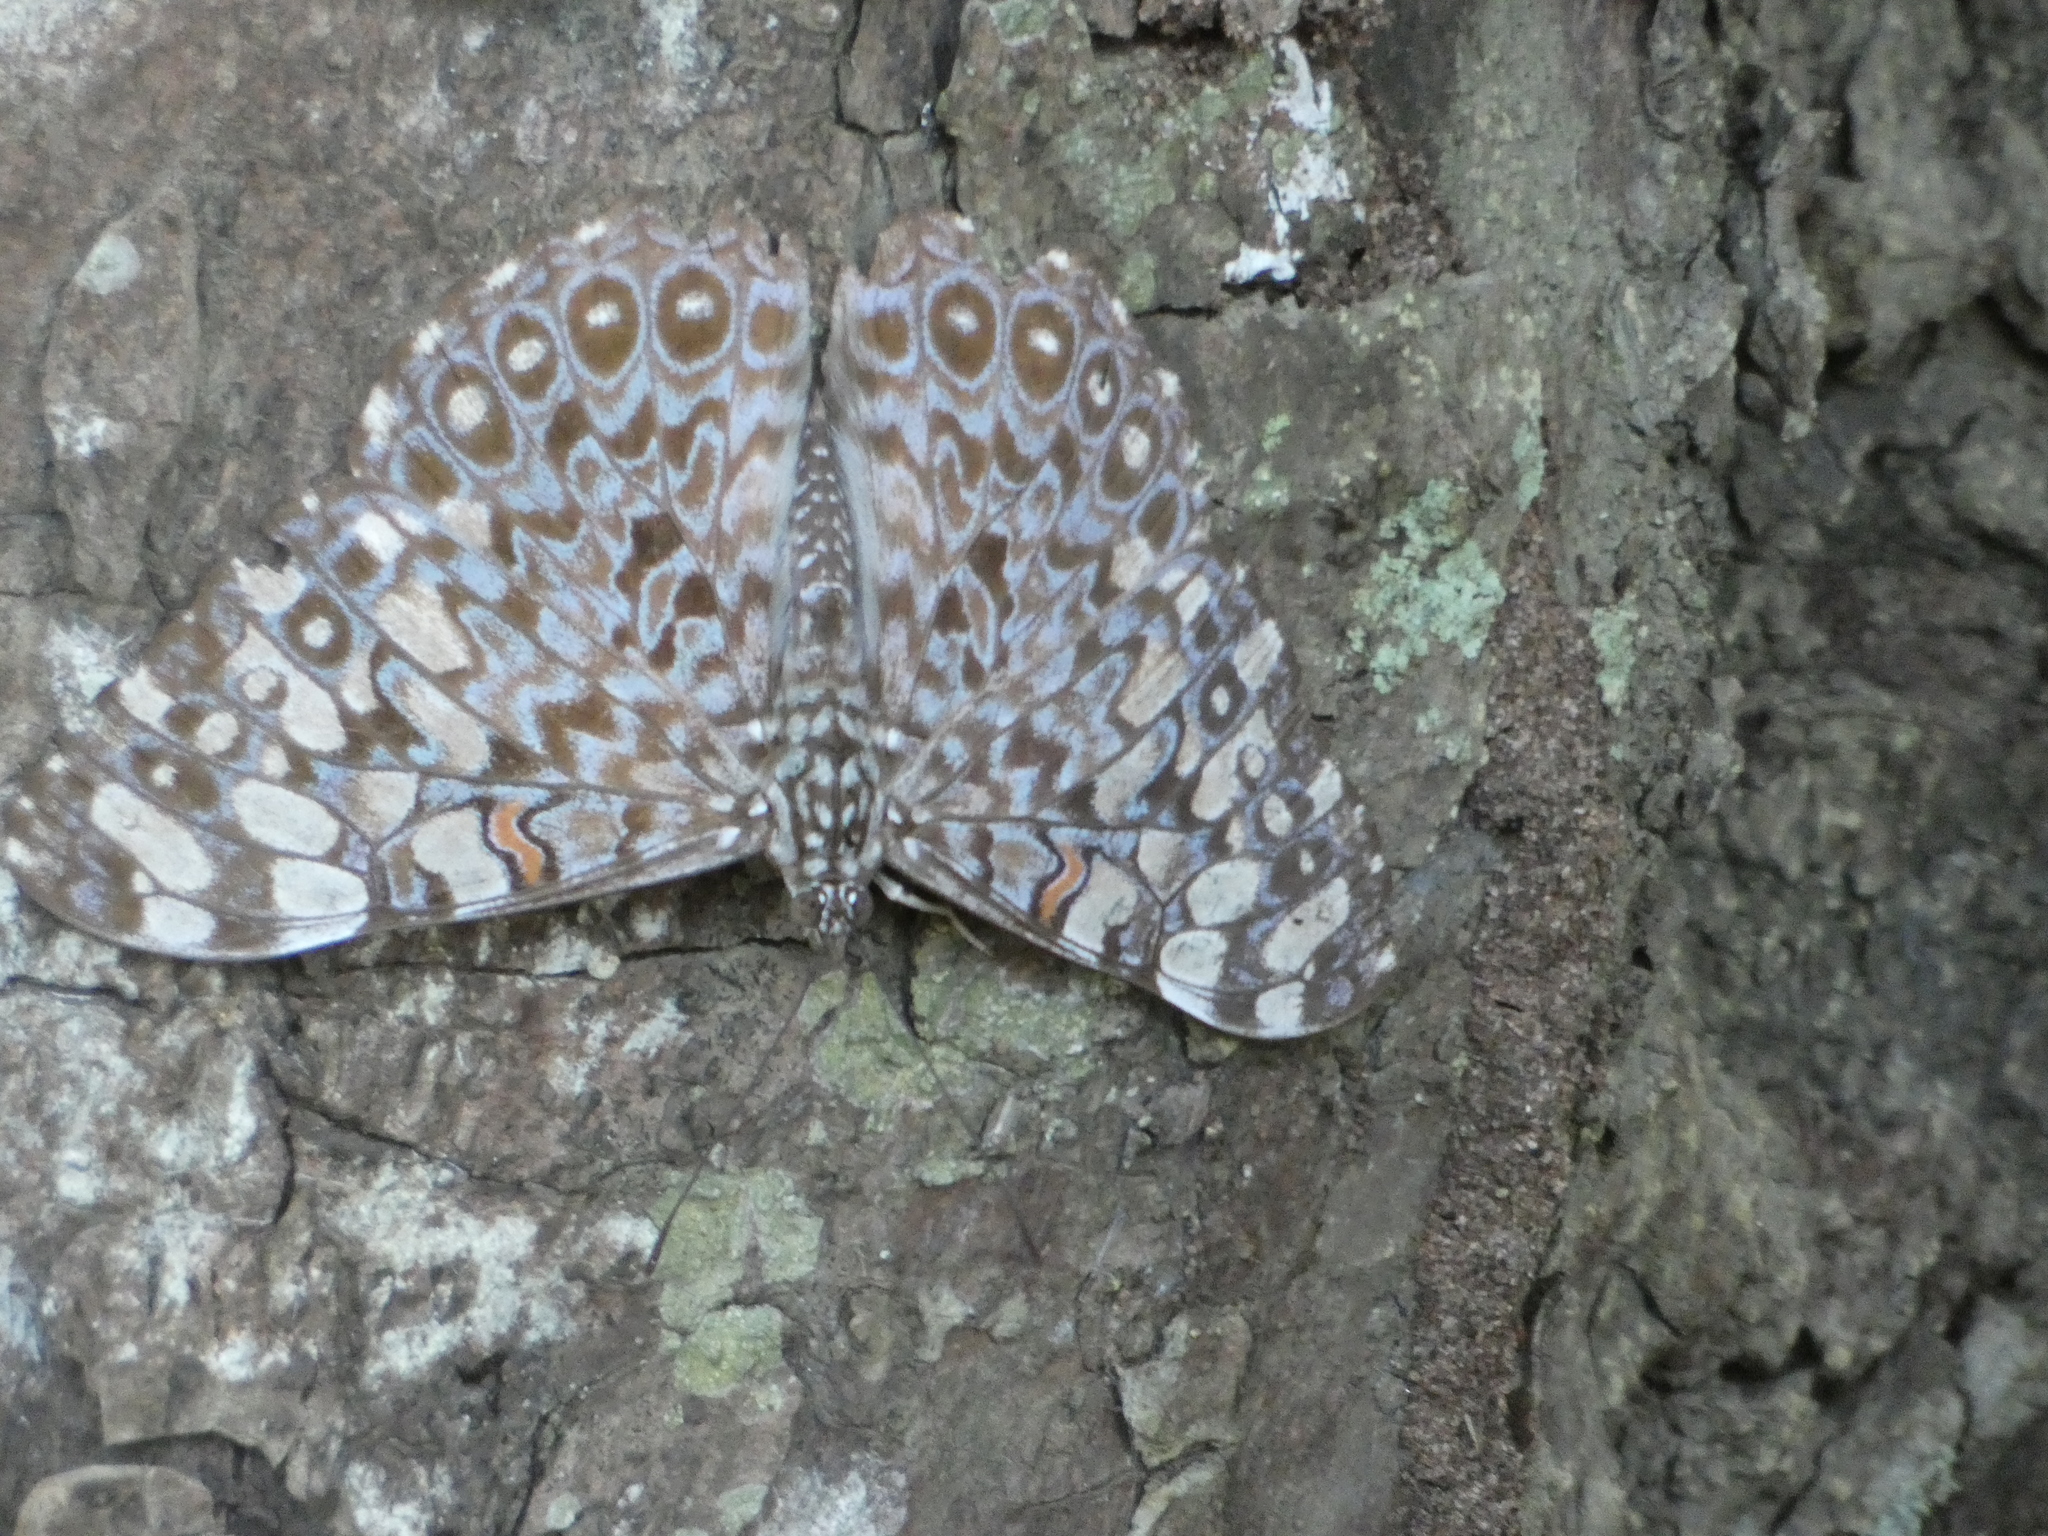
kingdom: Animalia
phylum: Arthropoda
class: Insecta
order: Lepidoptera
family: Nymphalidae
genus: Hamadryas
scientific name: Hamadryas feronia
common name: Variable cracker
